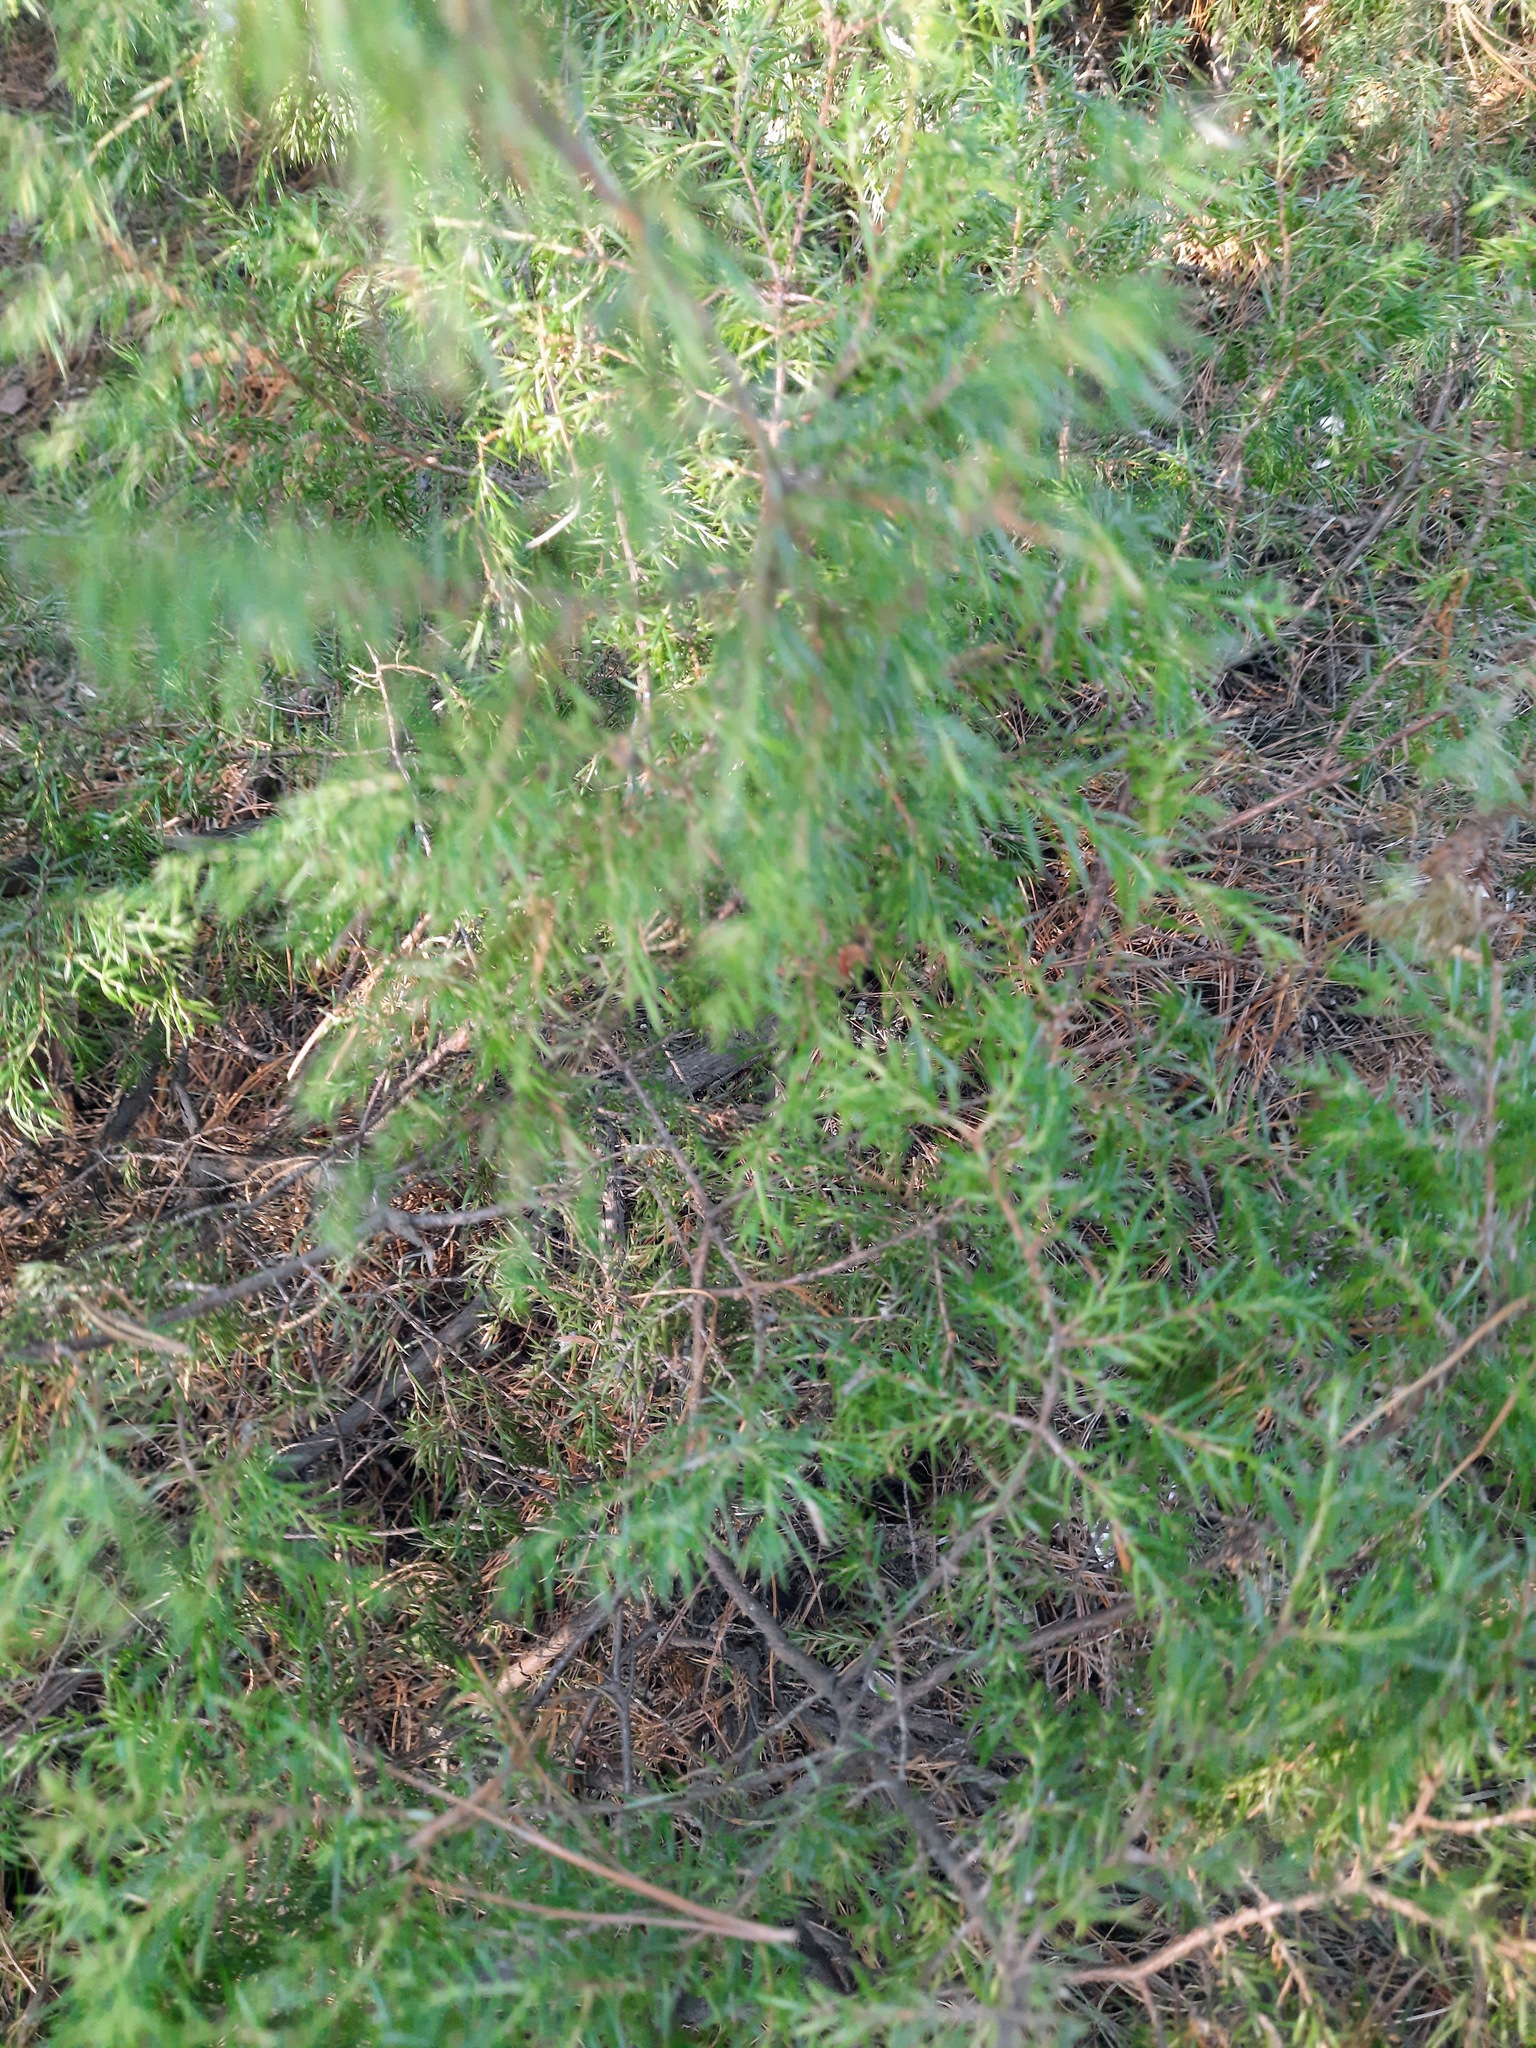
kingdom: Plantae
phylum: Tracheophyta
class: Pinopsida
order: Pinales
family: Cupressaceae
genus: Juniperus
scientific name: Juniperus communis
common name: Common juniper
